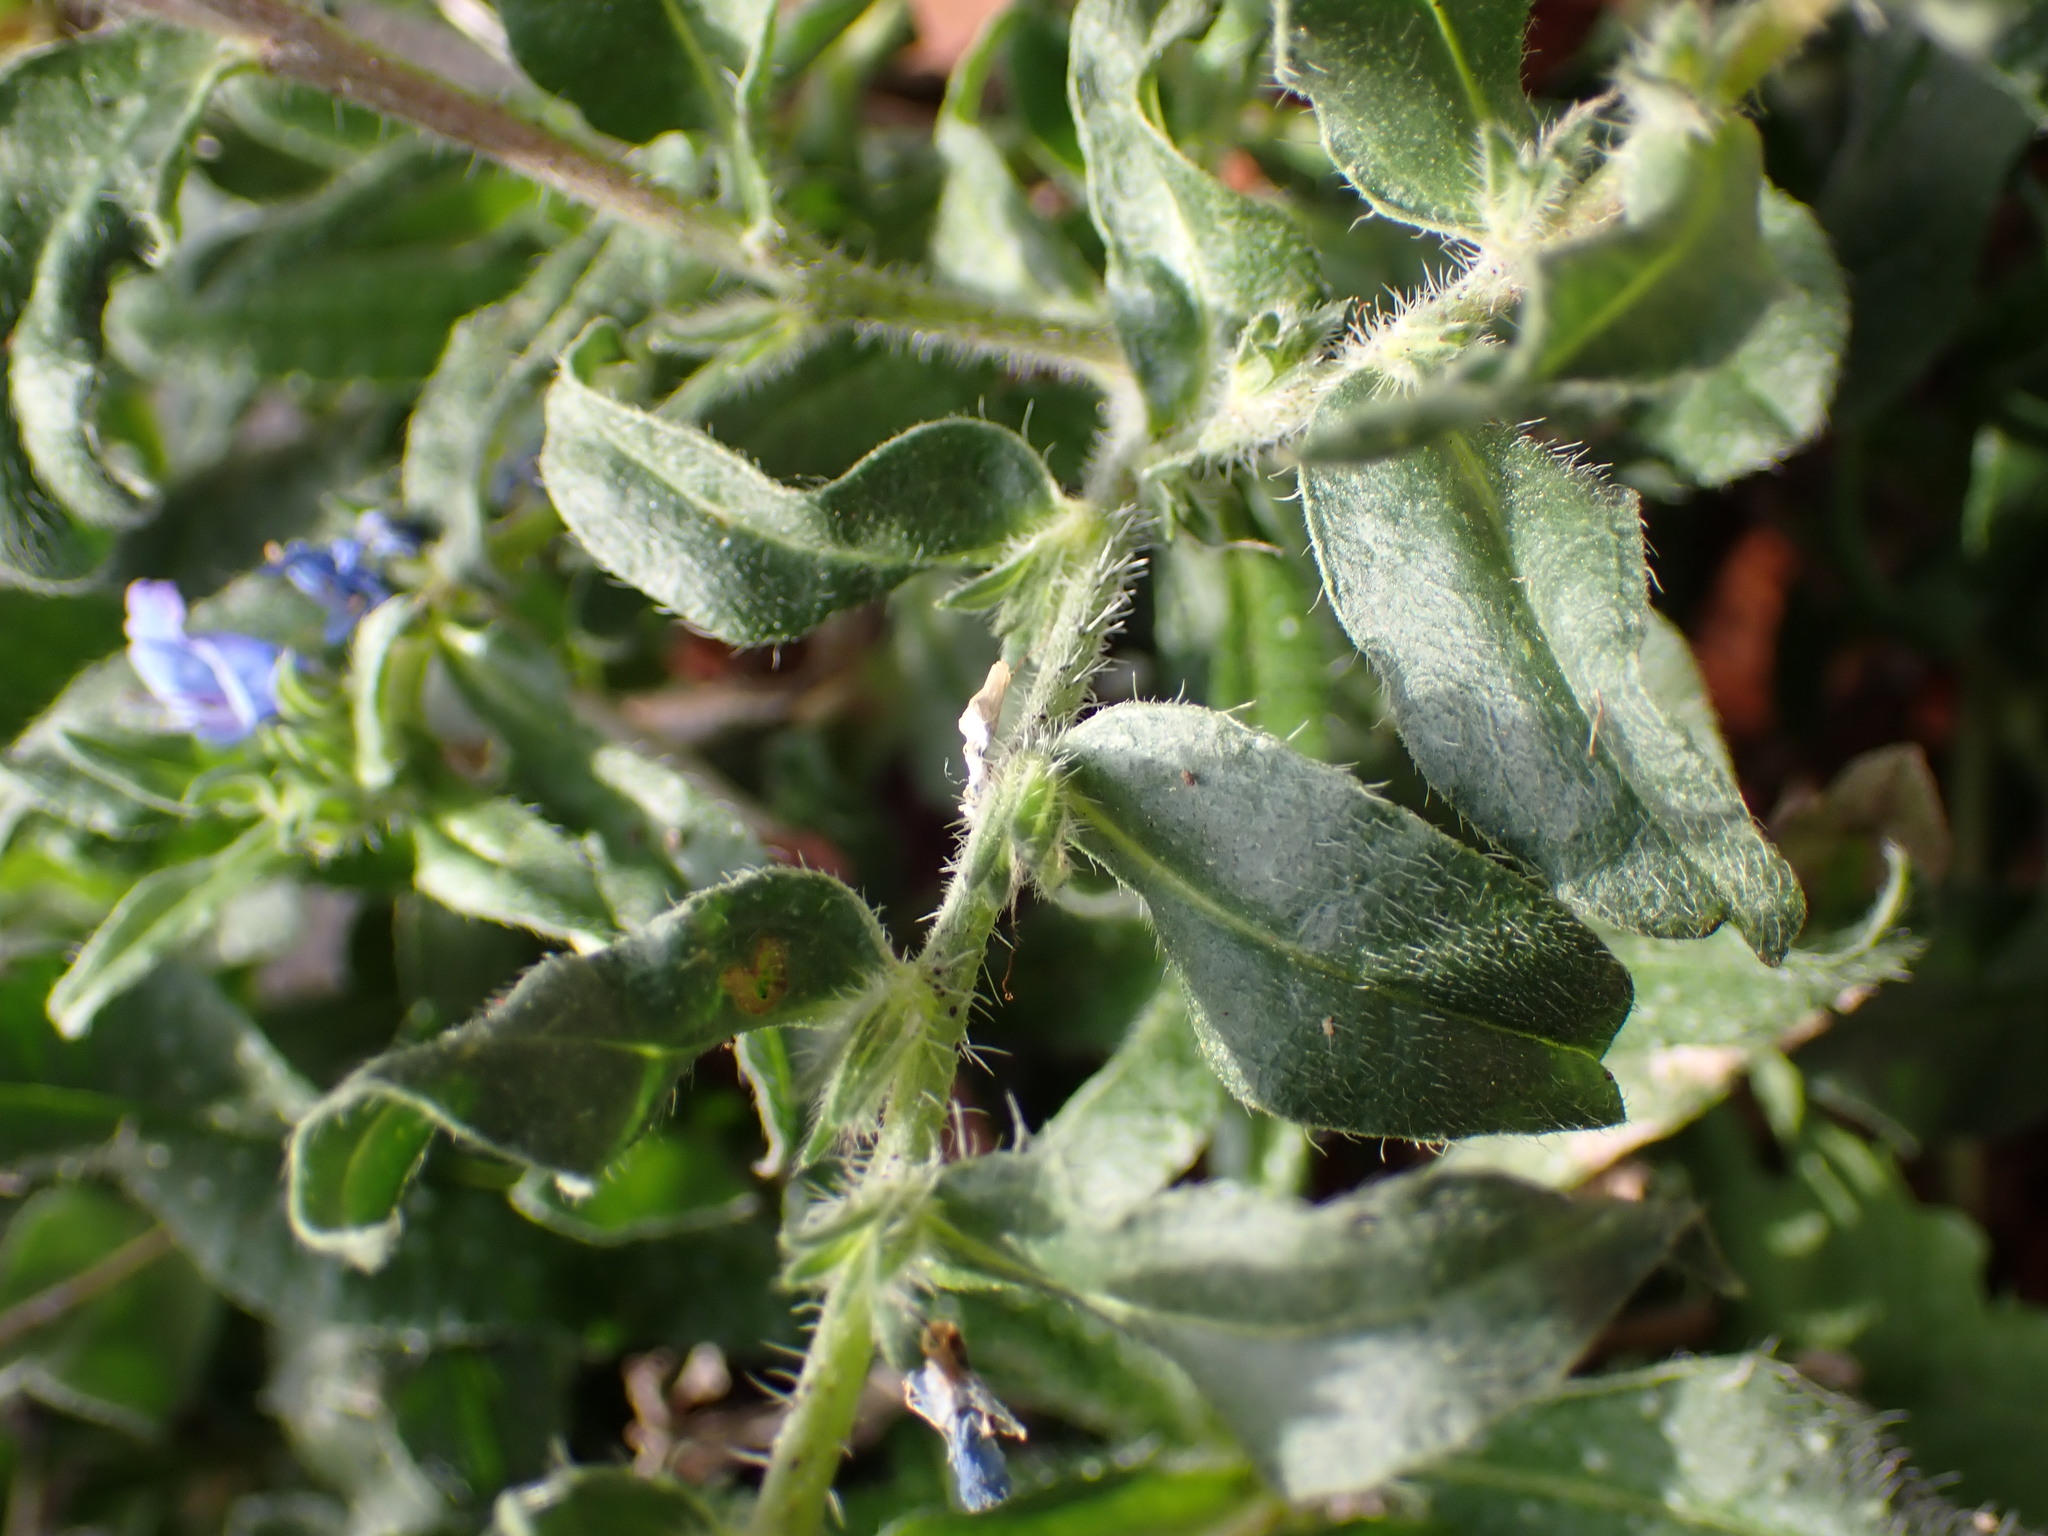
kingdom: Plantae
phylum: Tracheophyta
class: Magnoliopsida
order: Boraginales
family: Boraginaceae
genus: Echium
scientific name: Echium vulgare
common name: Common viper's bugloss
